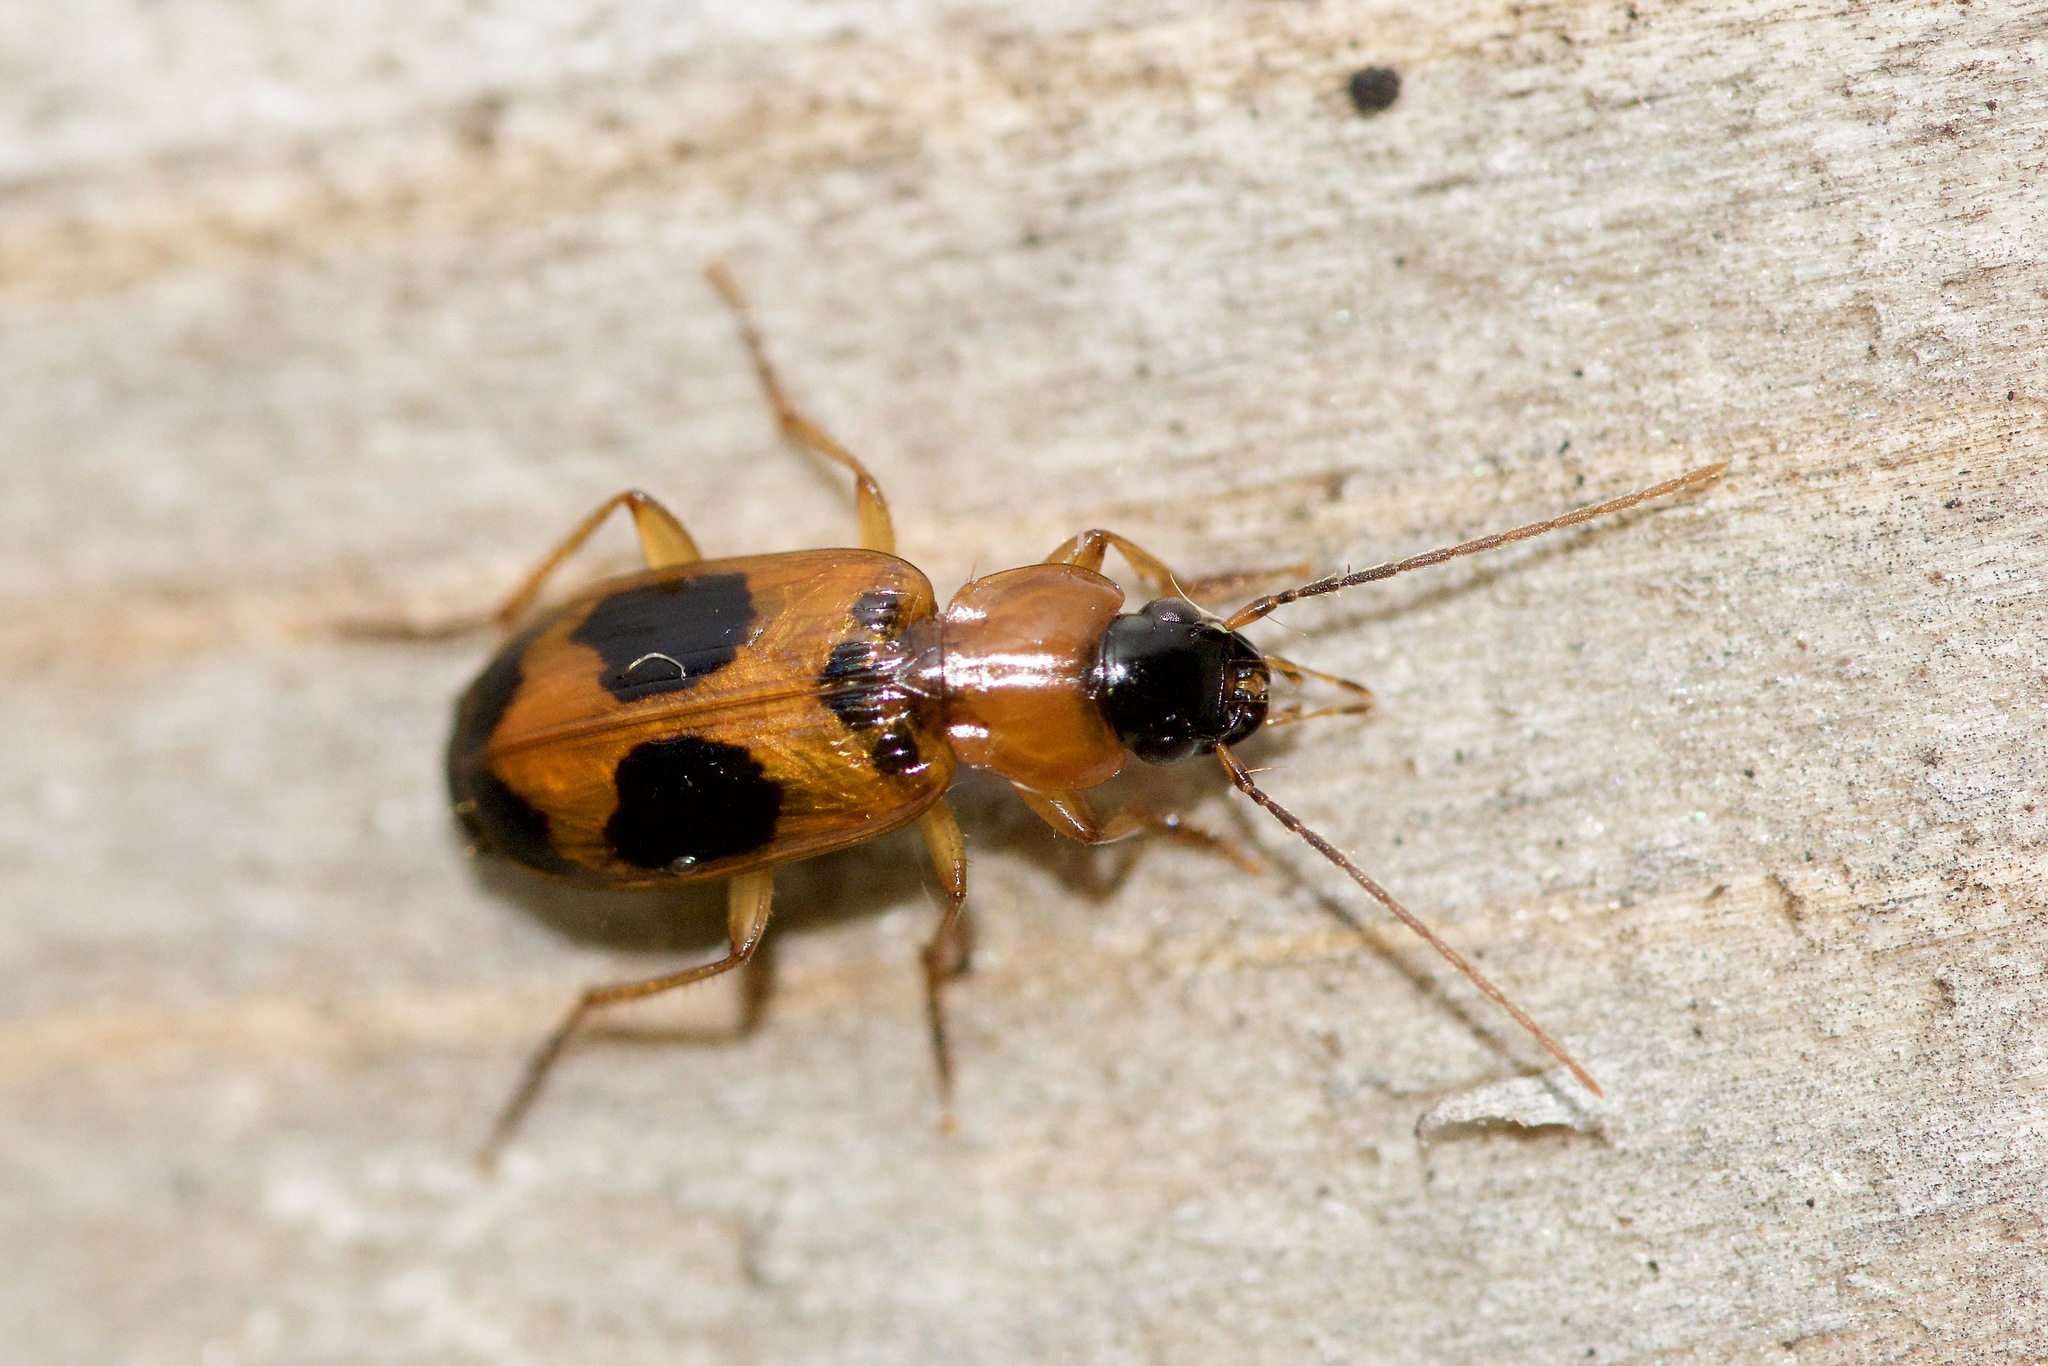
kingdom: Animalia
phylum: Arthropoda
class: Insecta
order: Coleoptera
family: Carabidae
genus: Badister
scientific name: Badister neopulchellus
